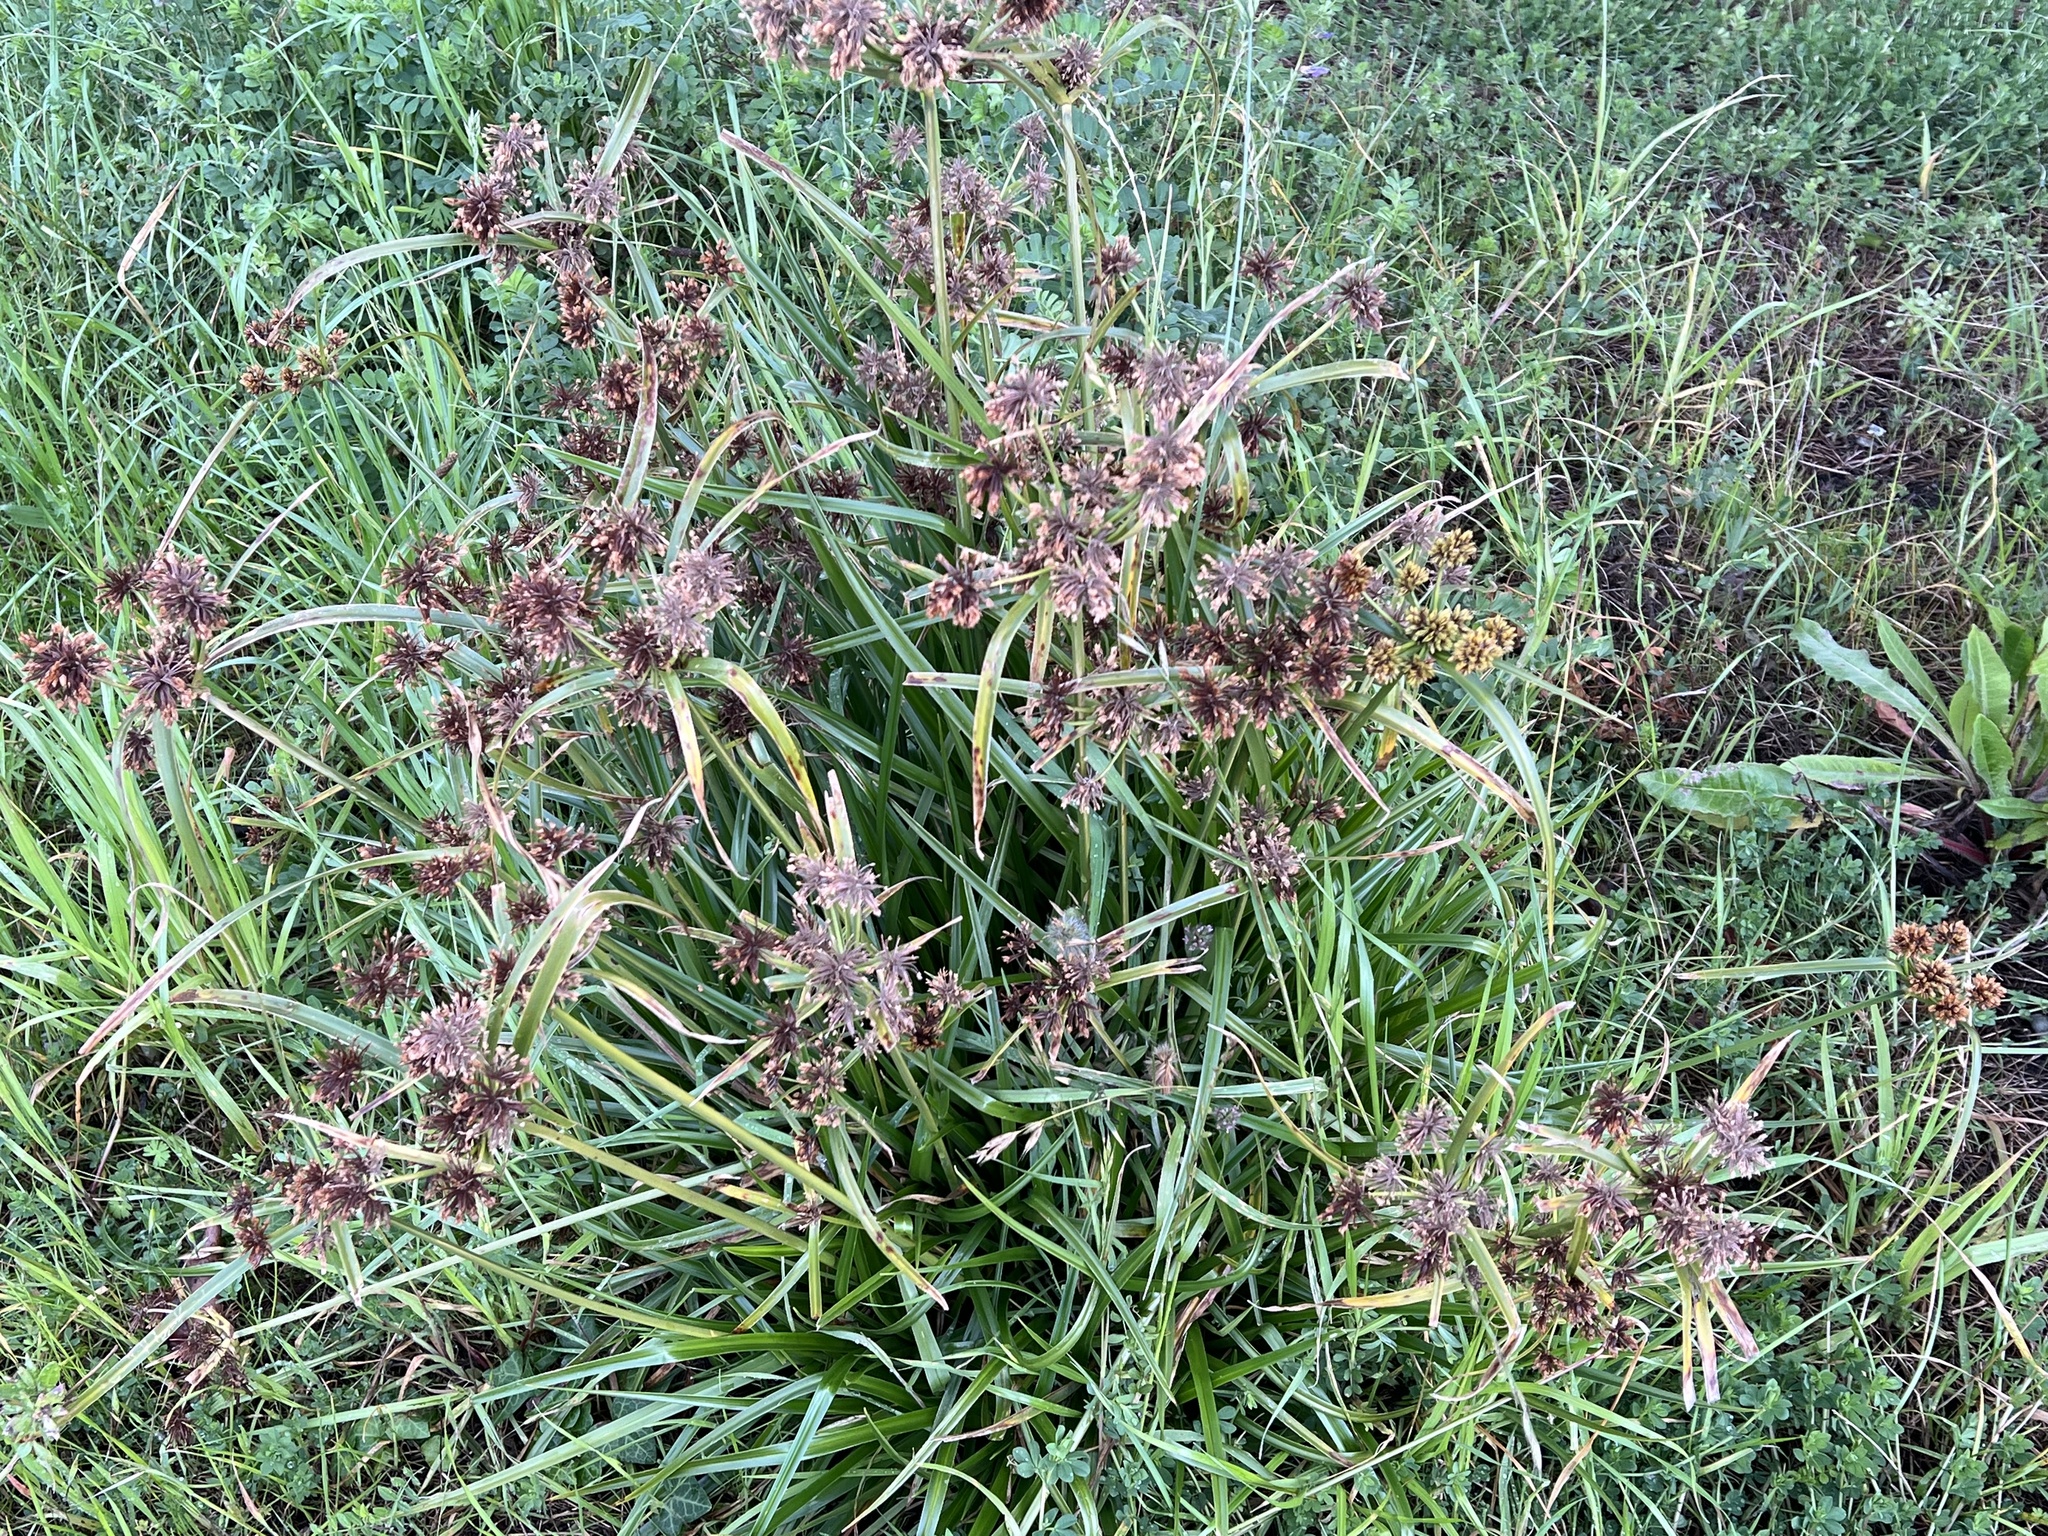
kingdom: Plantae
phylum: Tracheophyta
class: Liliopsida
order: Poales
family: Cyperaceae
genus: Cyperus
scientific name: Cyperus eragrostis
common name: Tall flatsedge
